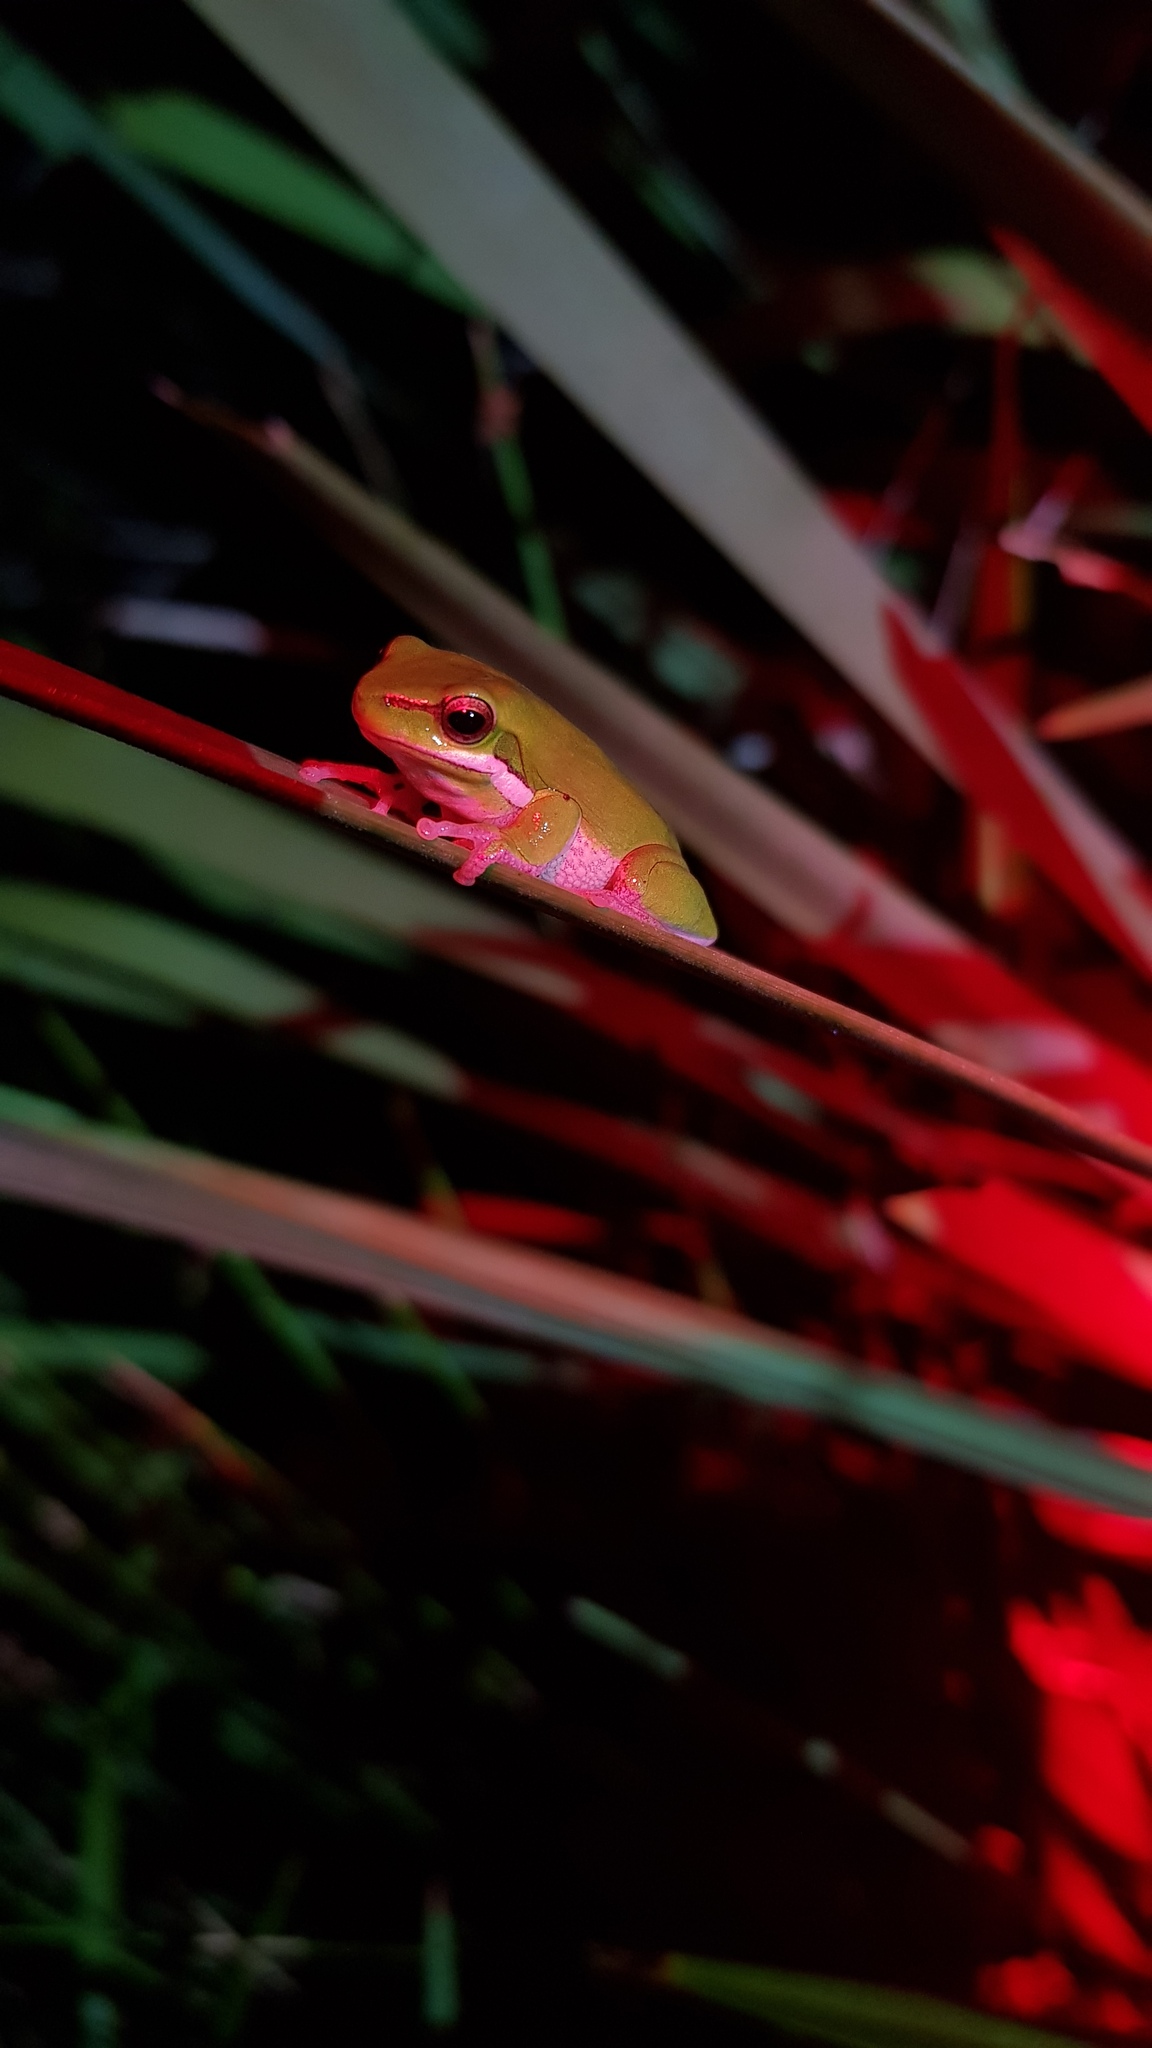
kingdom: Animalia
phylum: Chordata
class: Amphibia
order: Anura
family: Pelodryadidae
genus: Litoria
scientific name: Litoria fallax
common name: Eastern dwarf treefrog
